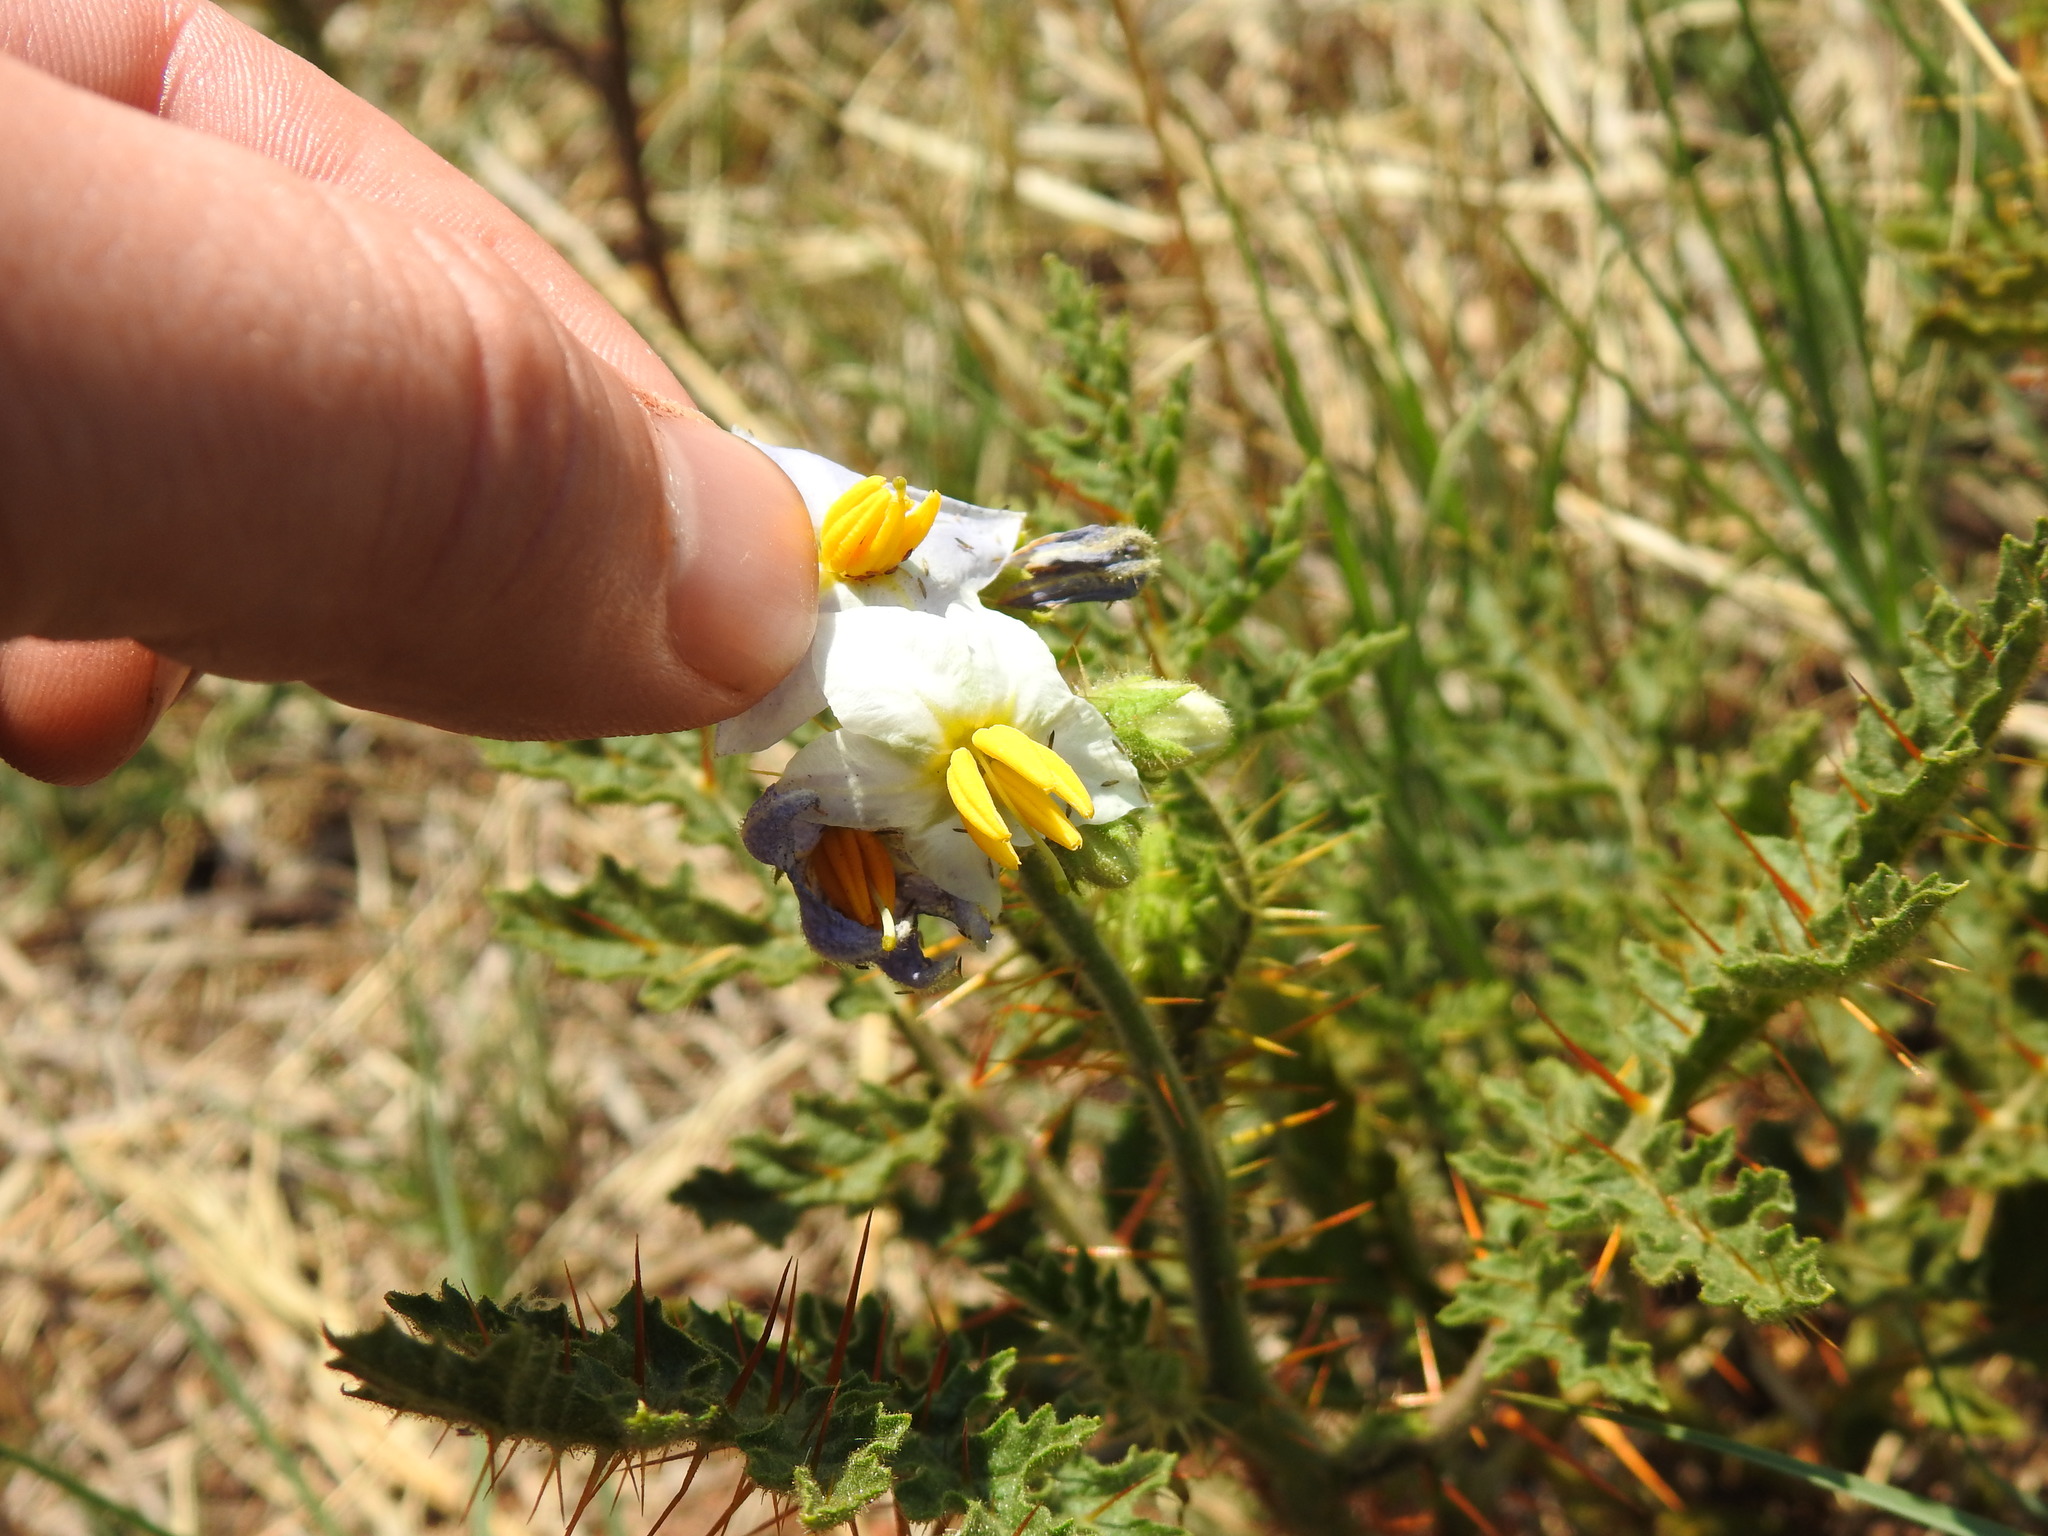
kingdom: Plantae
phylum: Tracheophyta
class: Magnoliopsida
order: Solanales
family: Solanaceae
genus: Solanum
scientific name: Solanum sisymbriifolium
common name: Red buffalo-bur
